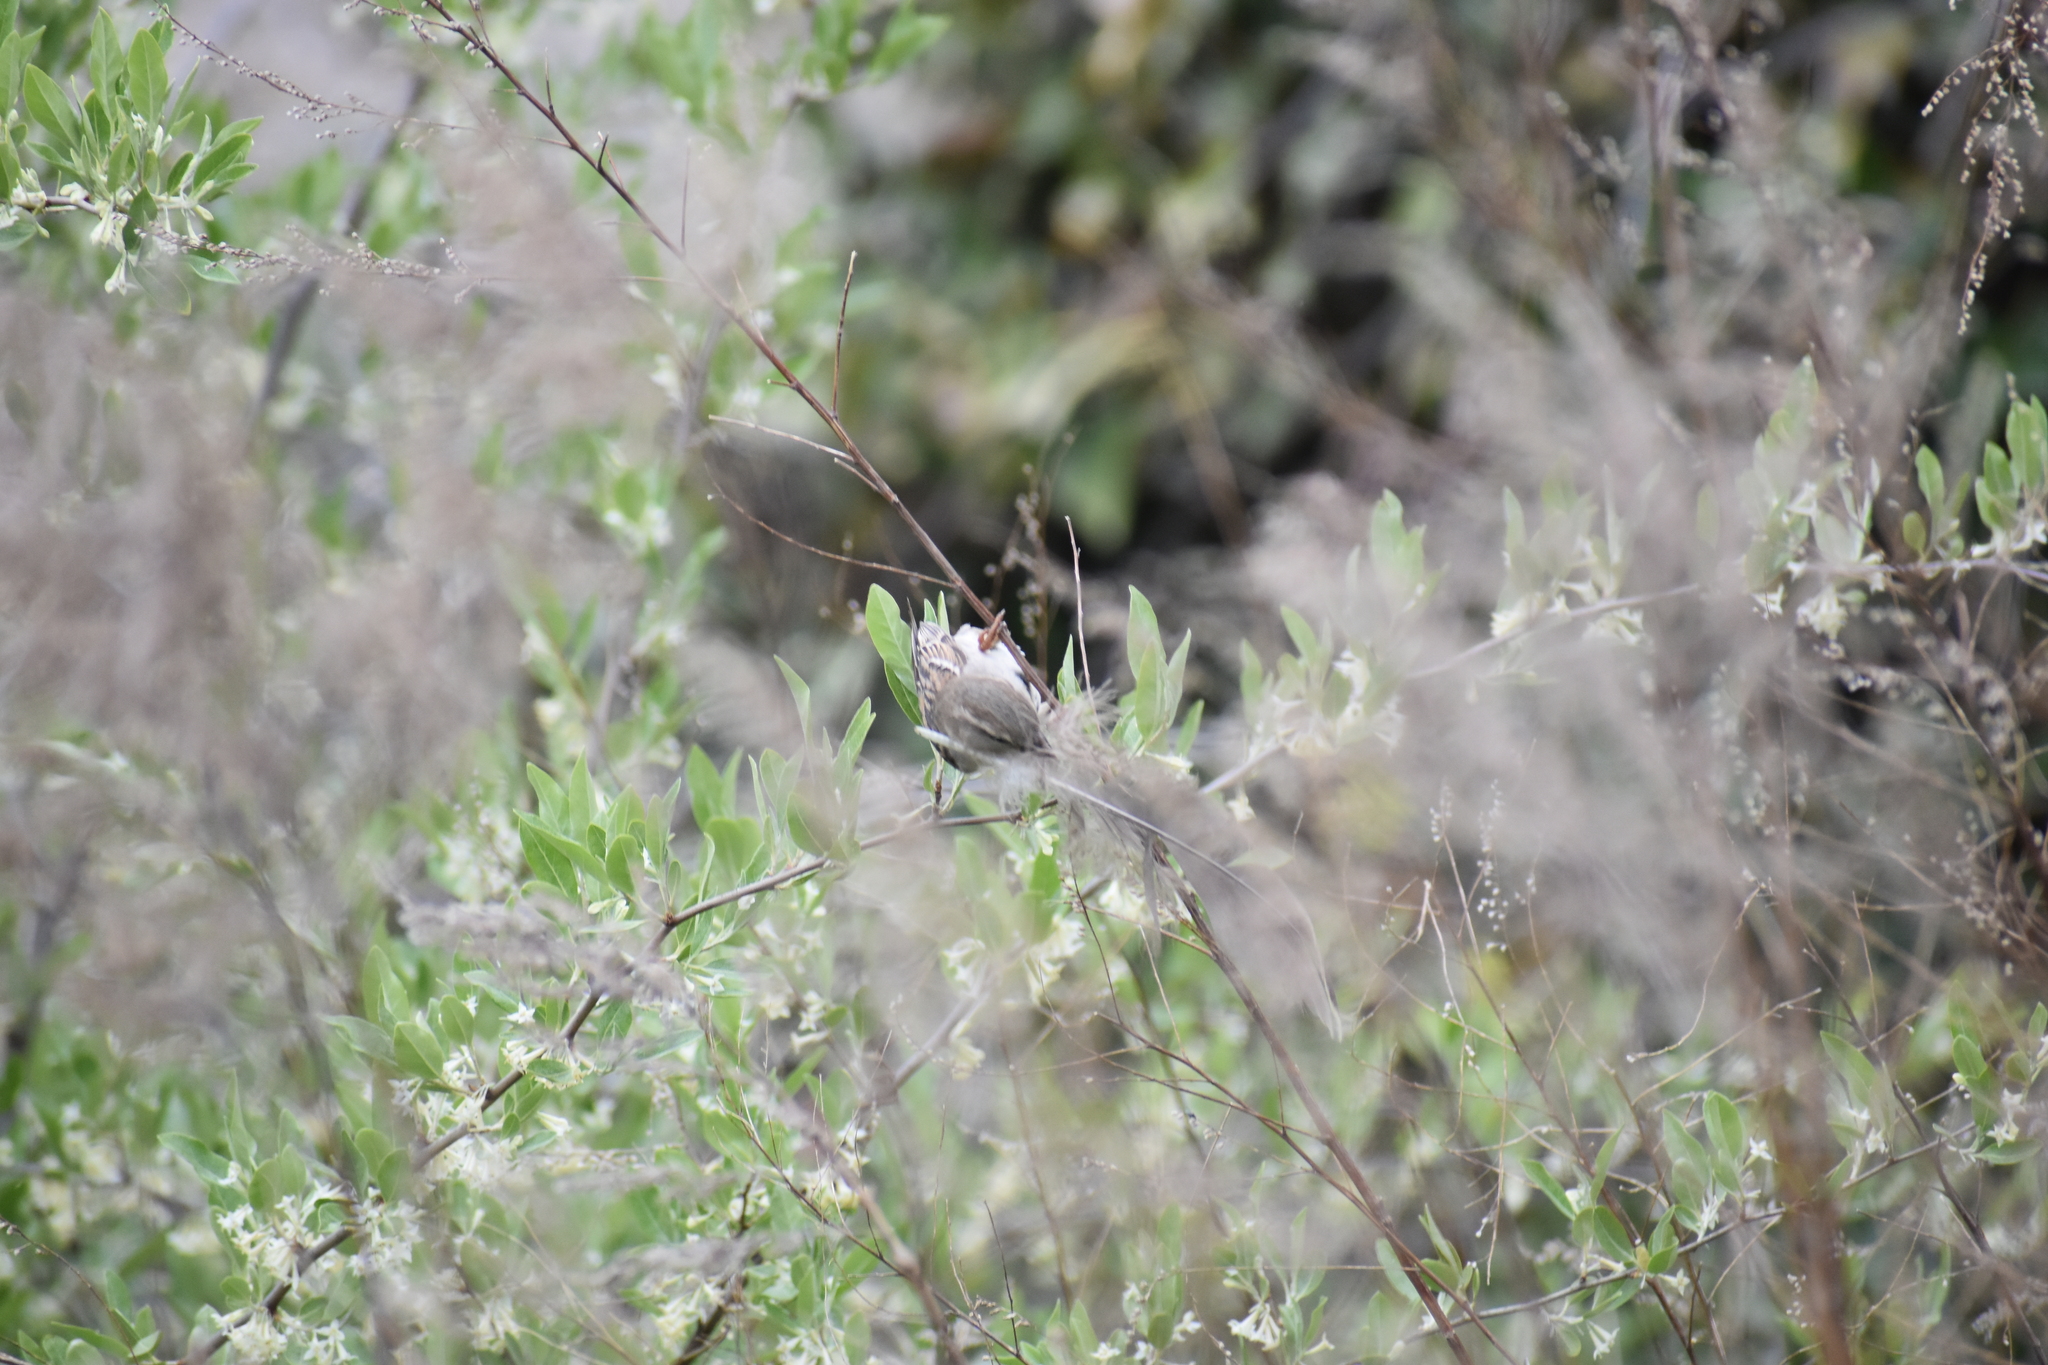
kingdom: Animalia
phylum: Chordata
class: Aves
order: Passeriformes
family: Passeridae
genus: Passer
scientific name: Passer domesticus
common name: House sparrow
